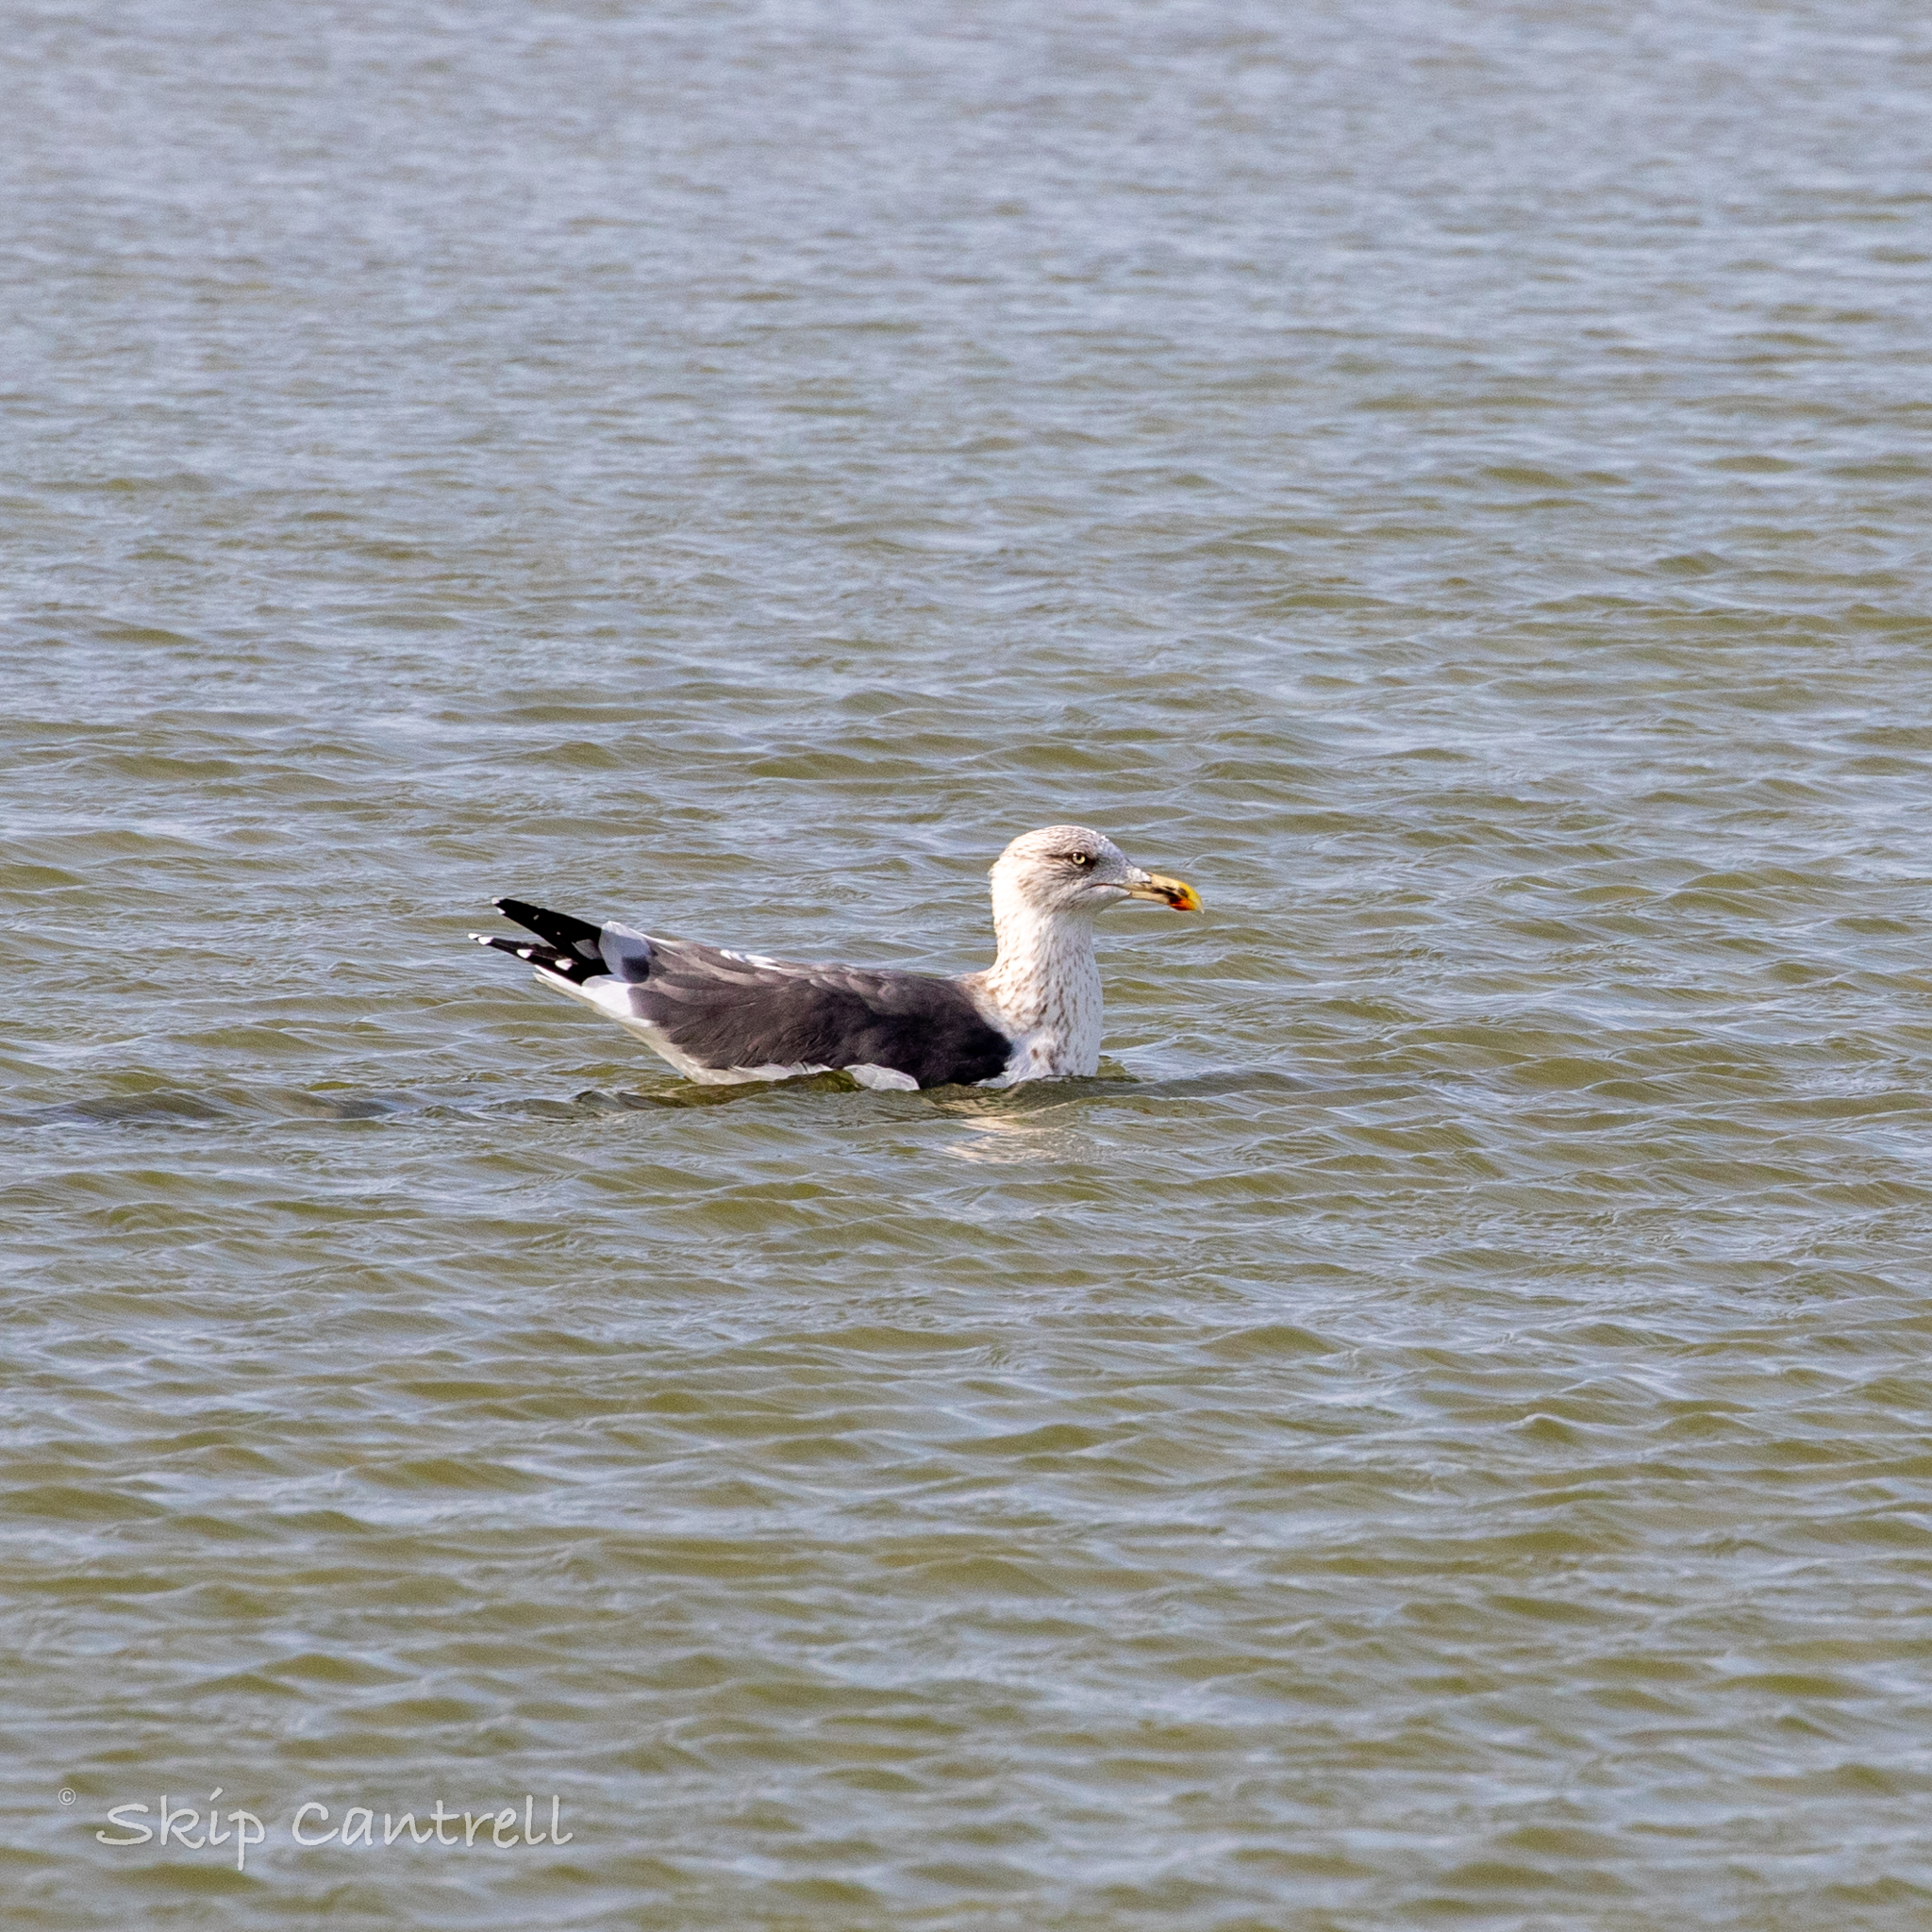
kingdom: Animalia
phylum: Chordata
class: Aves
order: Charadriiformes
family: Laridae
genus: Larus
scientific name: Larus fuscus
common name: Lesser black-backed gull
